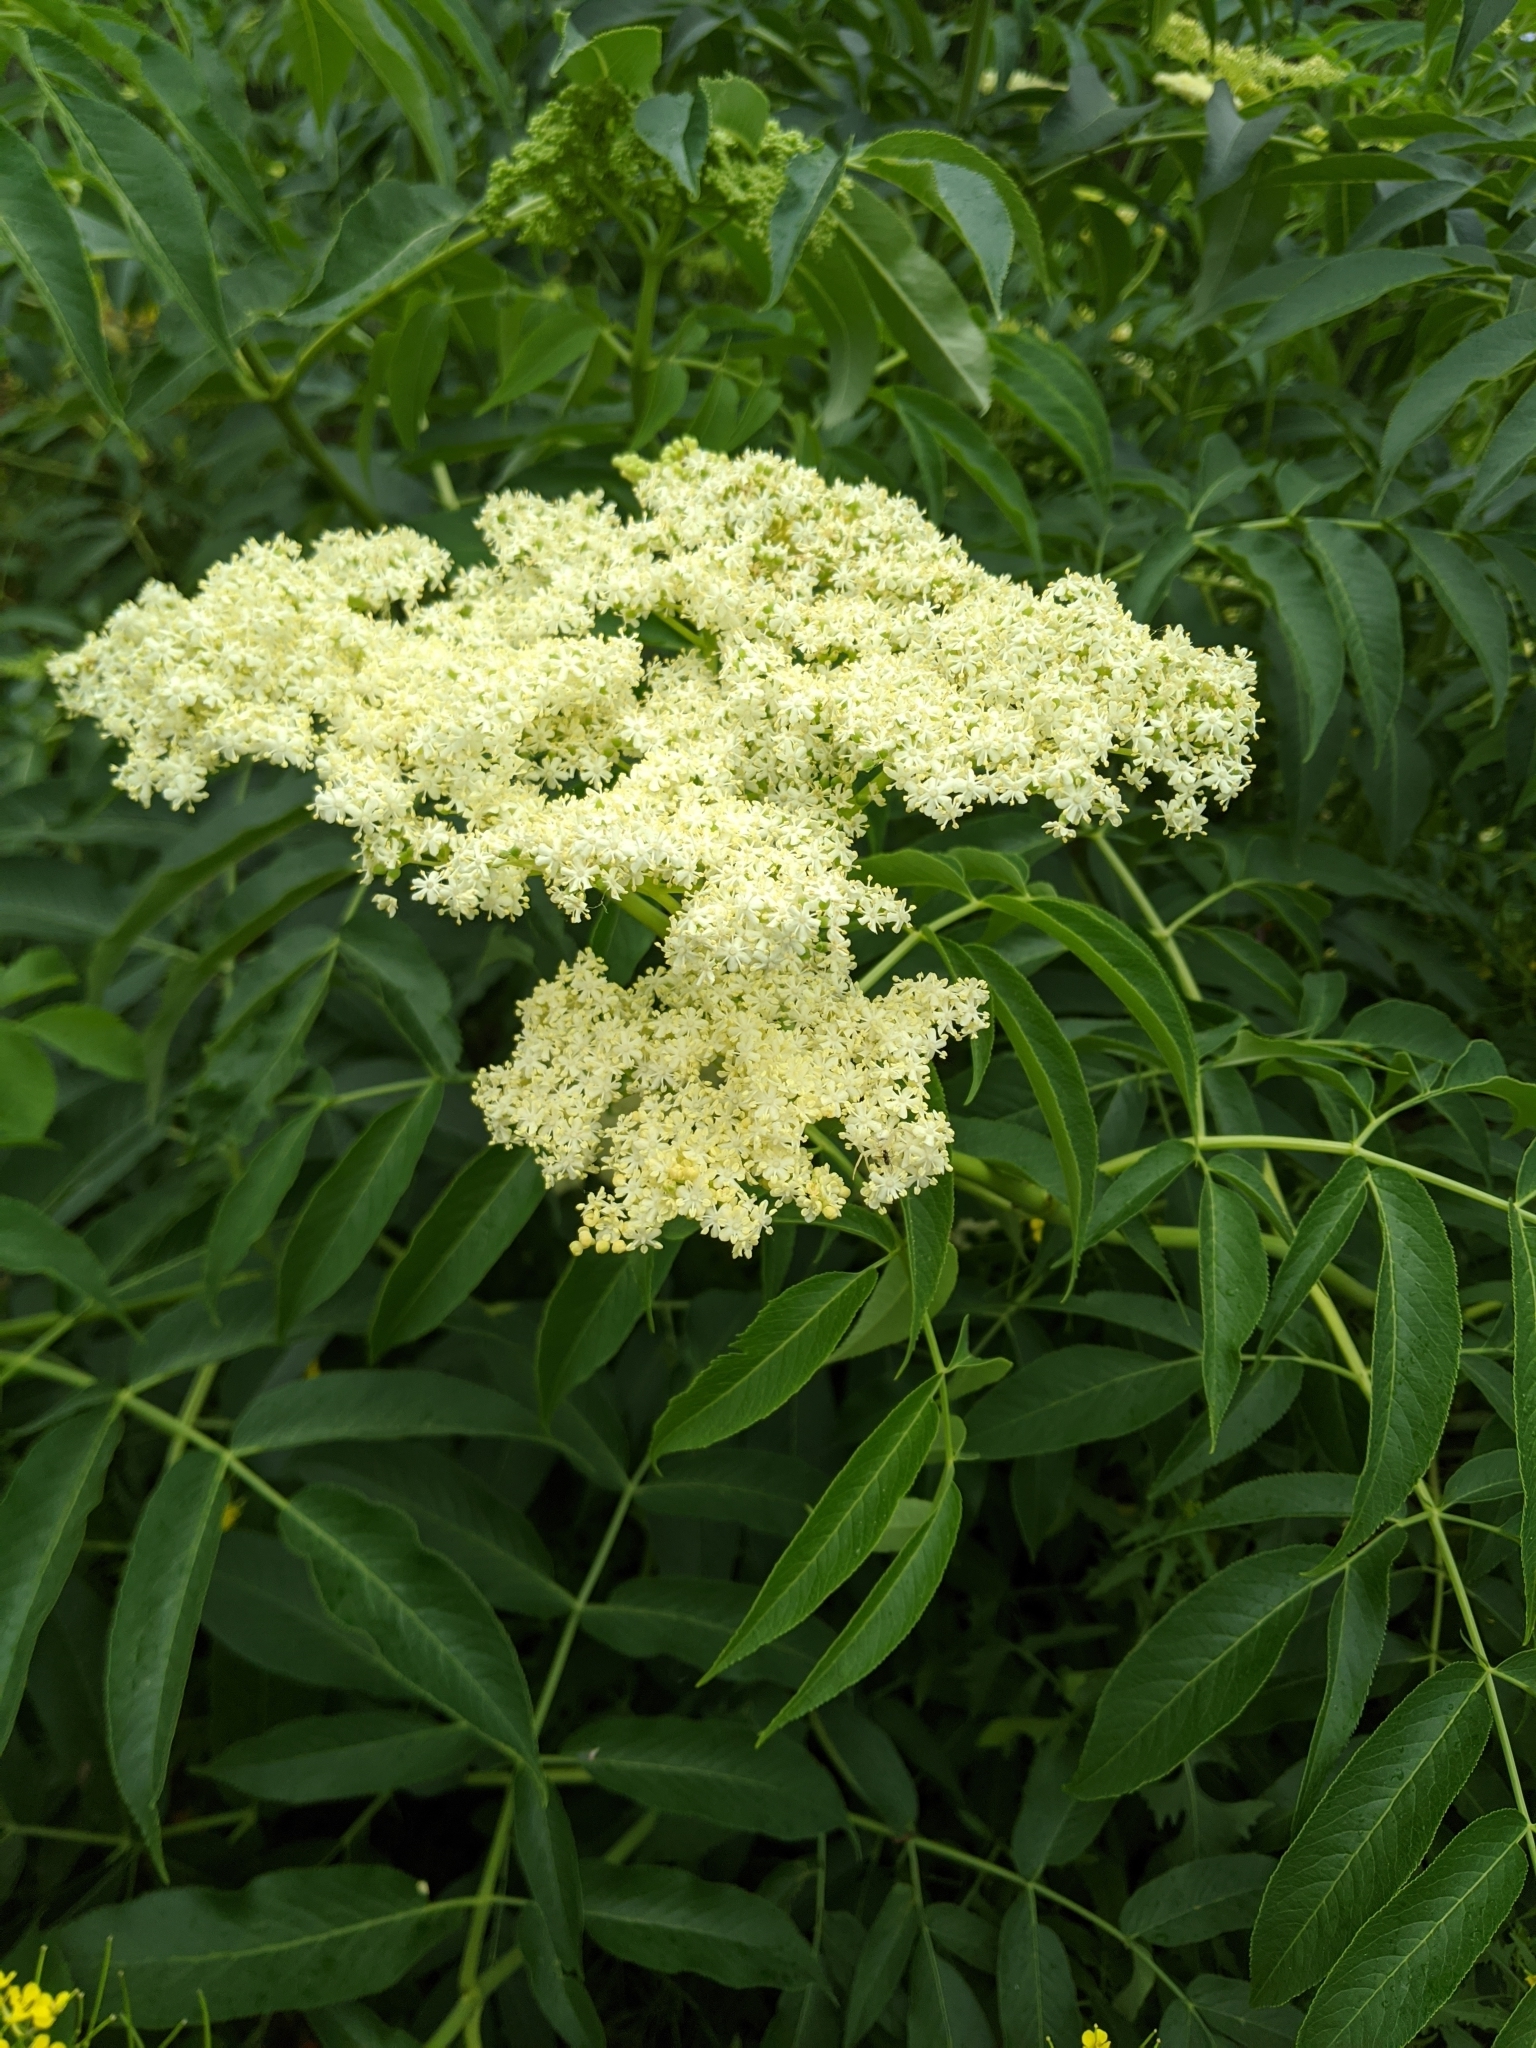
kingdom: Plantae
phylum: Tracheophyta
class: Magnoliopsida
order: Dipsacales
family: Viburnaceae
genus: Sambucus
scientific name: Sambucus cerulea
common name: Blue elder
